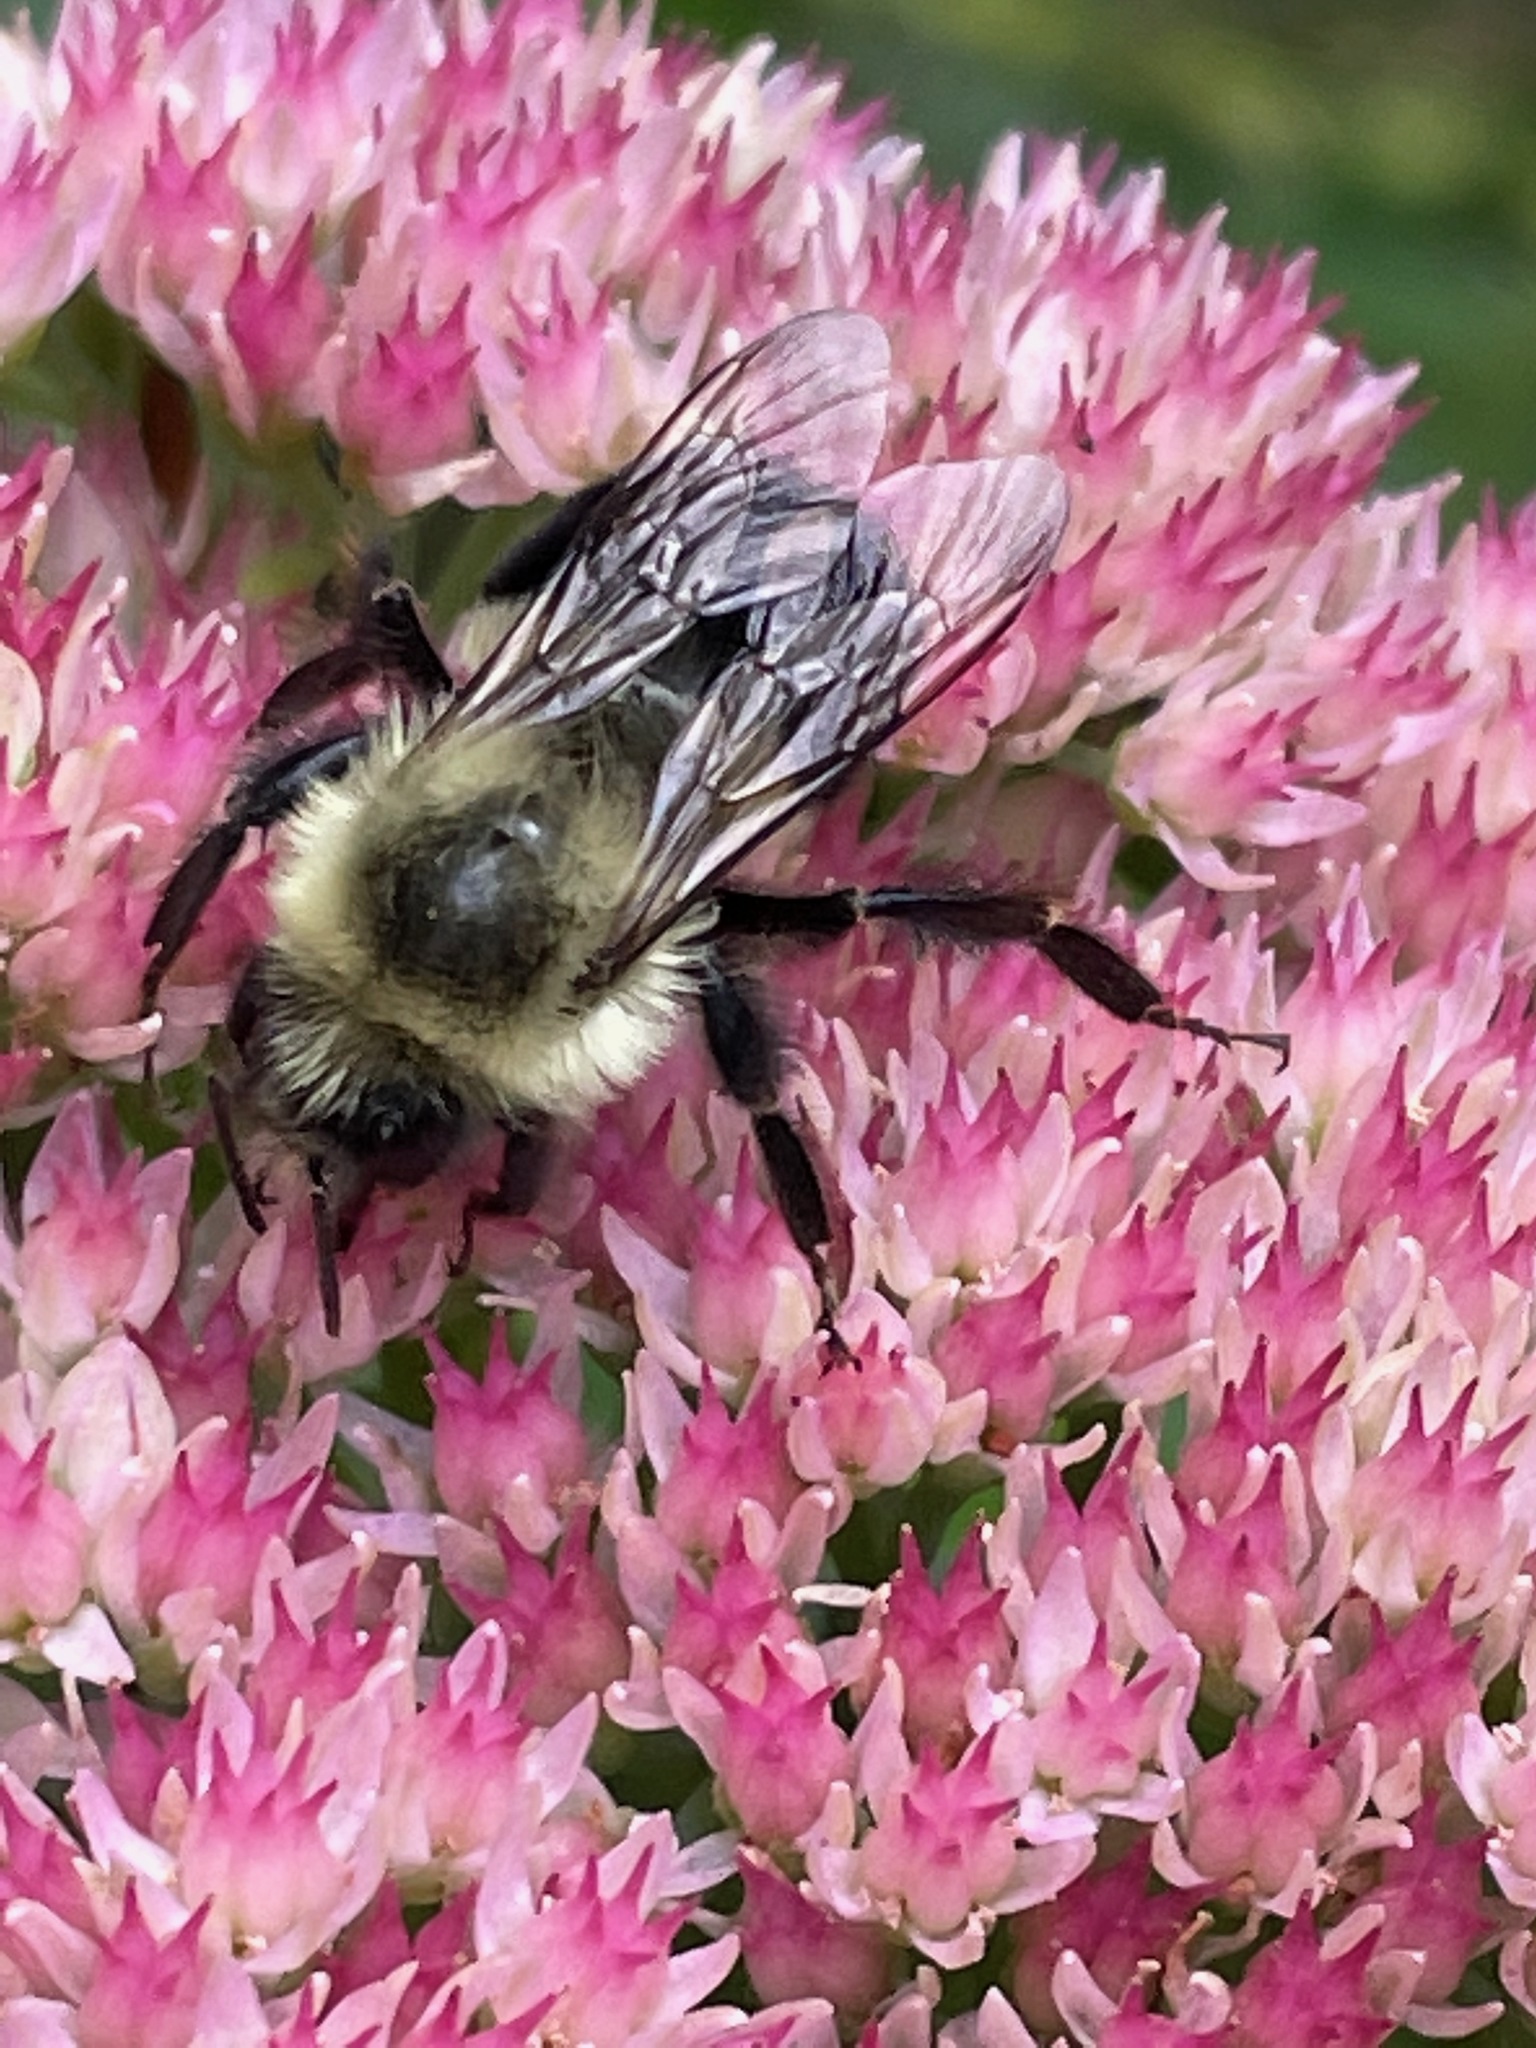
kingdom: Animalia
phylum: Arthropoda
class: Insecta
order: Hymenoptera
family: Apidae
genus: Bombus
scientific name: Bombus impatiens
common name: Common eastern bumble bee
